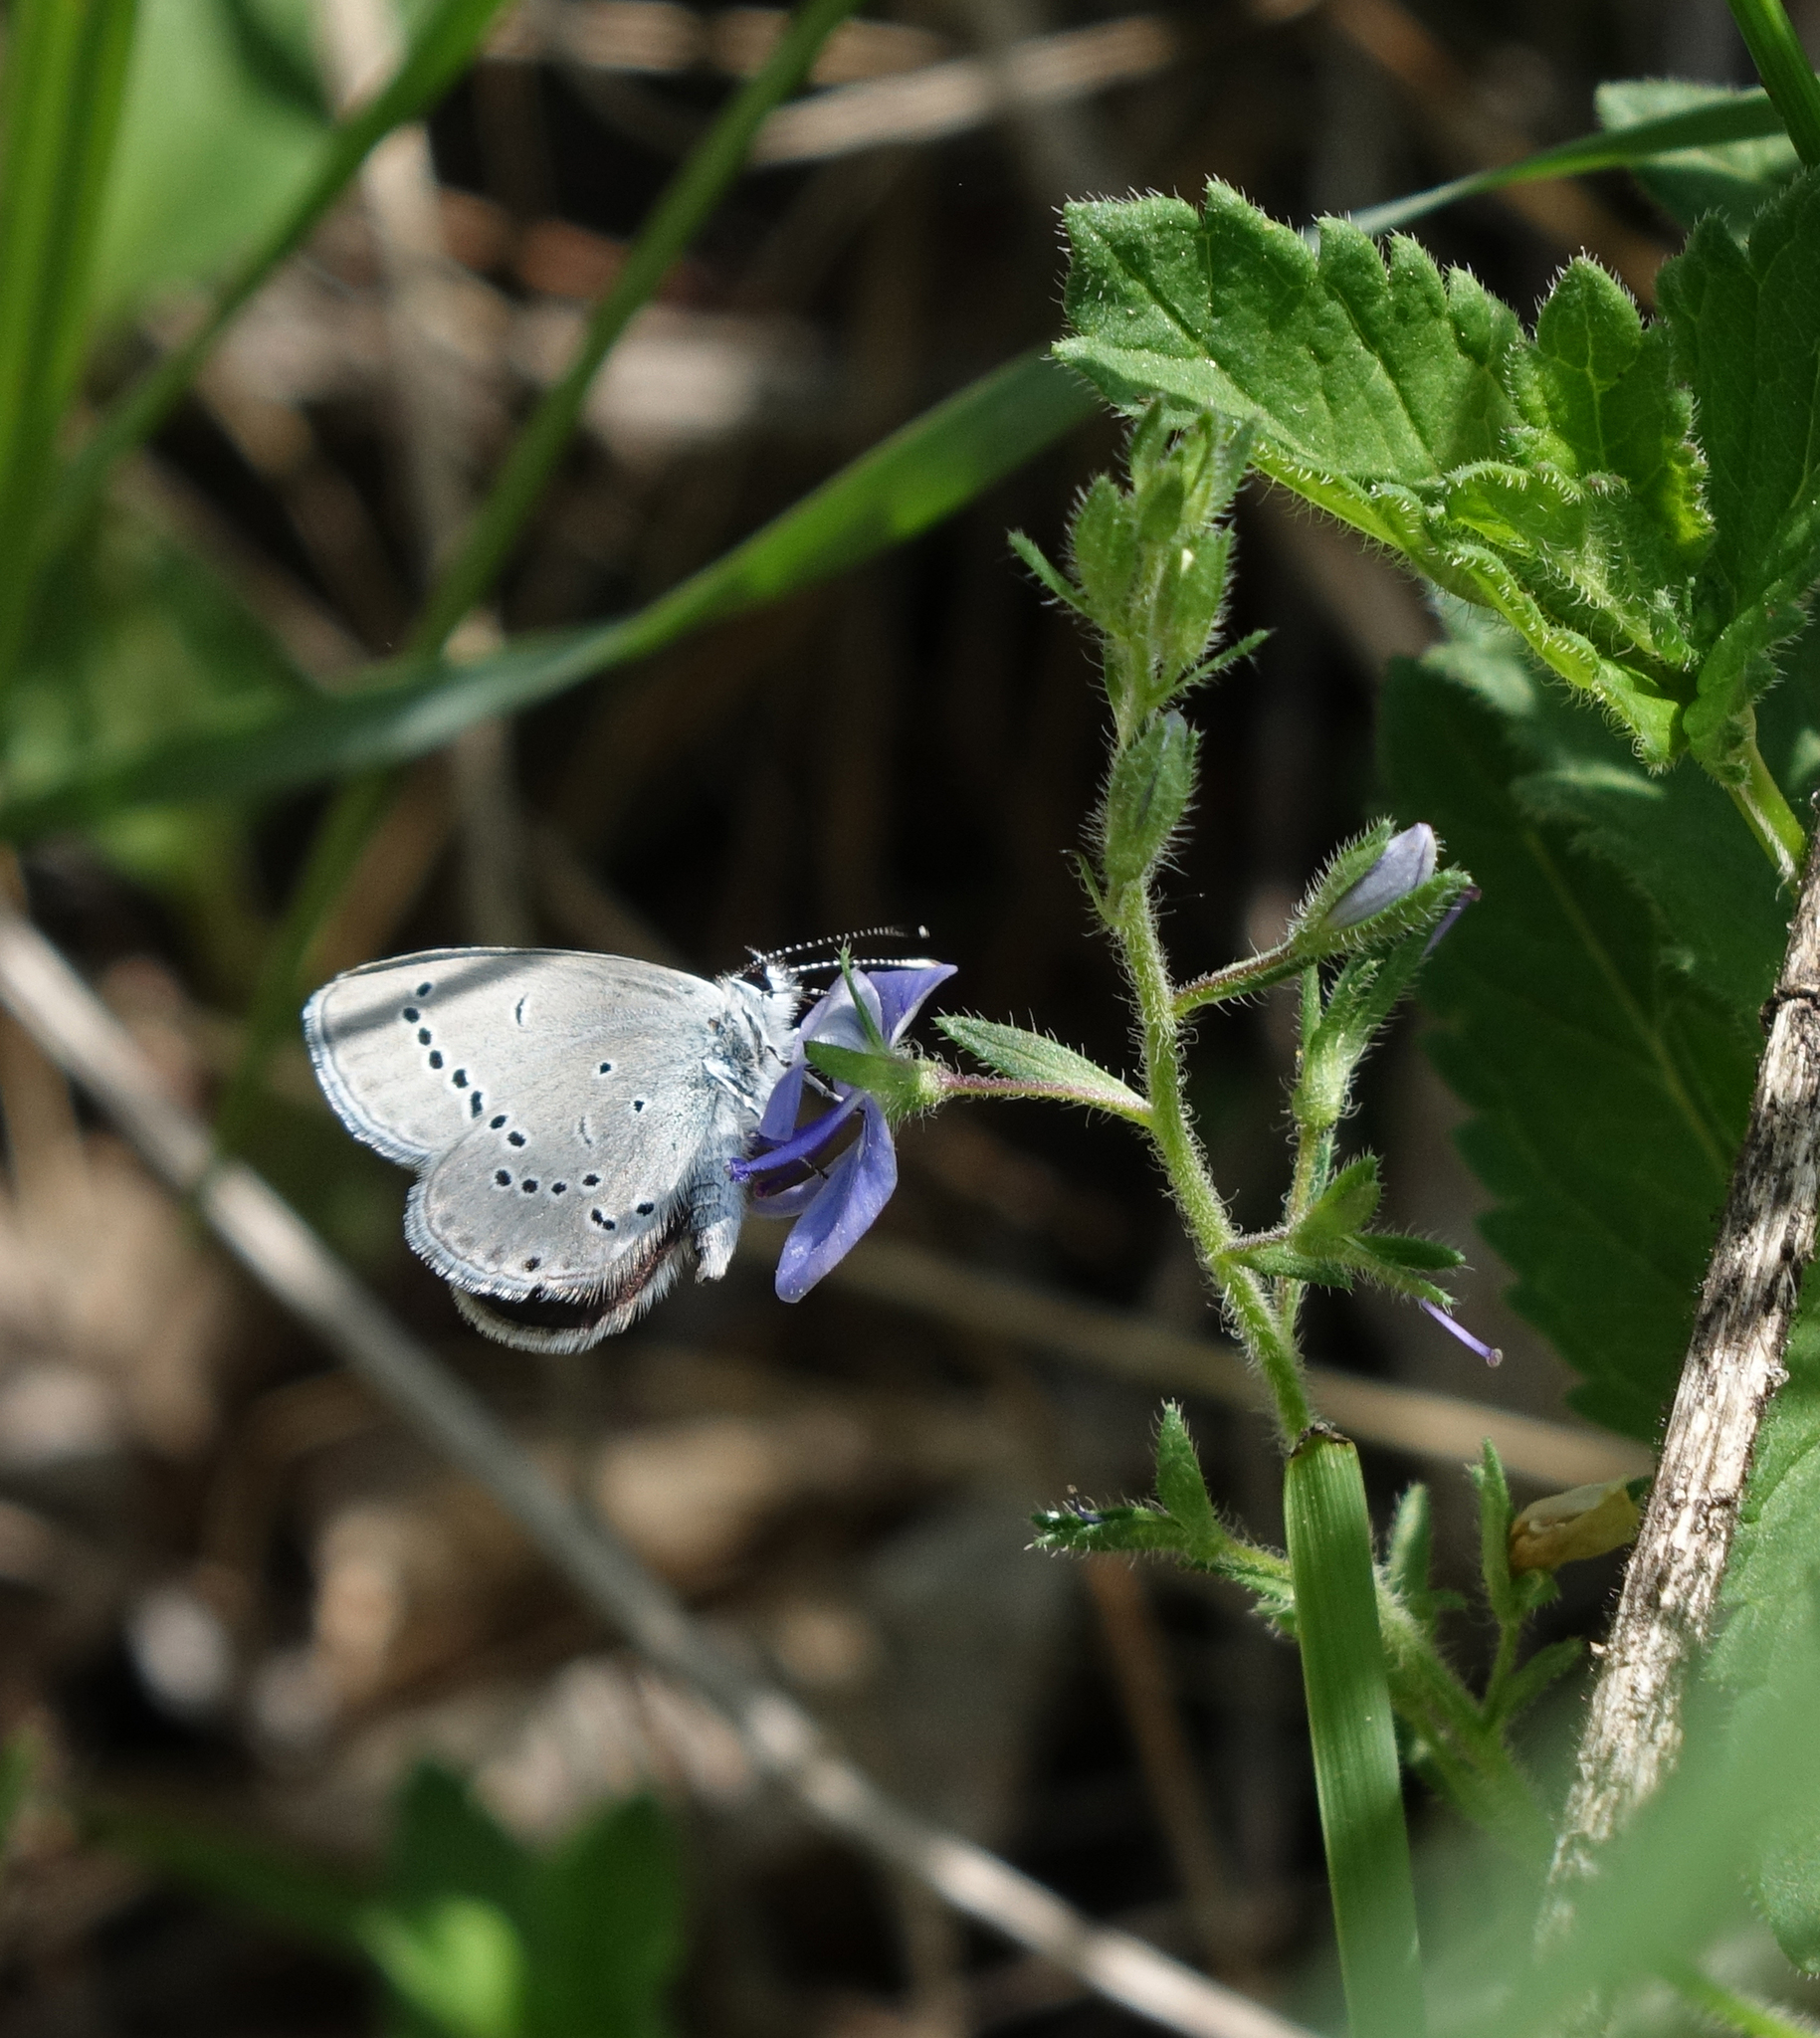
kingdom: Animalia
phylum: Arthropoda
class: Insecta
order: Lepidoptera
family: Lycaenidae
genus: Cupido
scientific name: Cupido minimus
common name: Small blue
